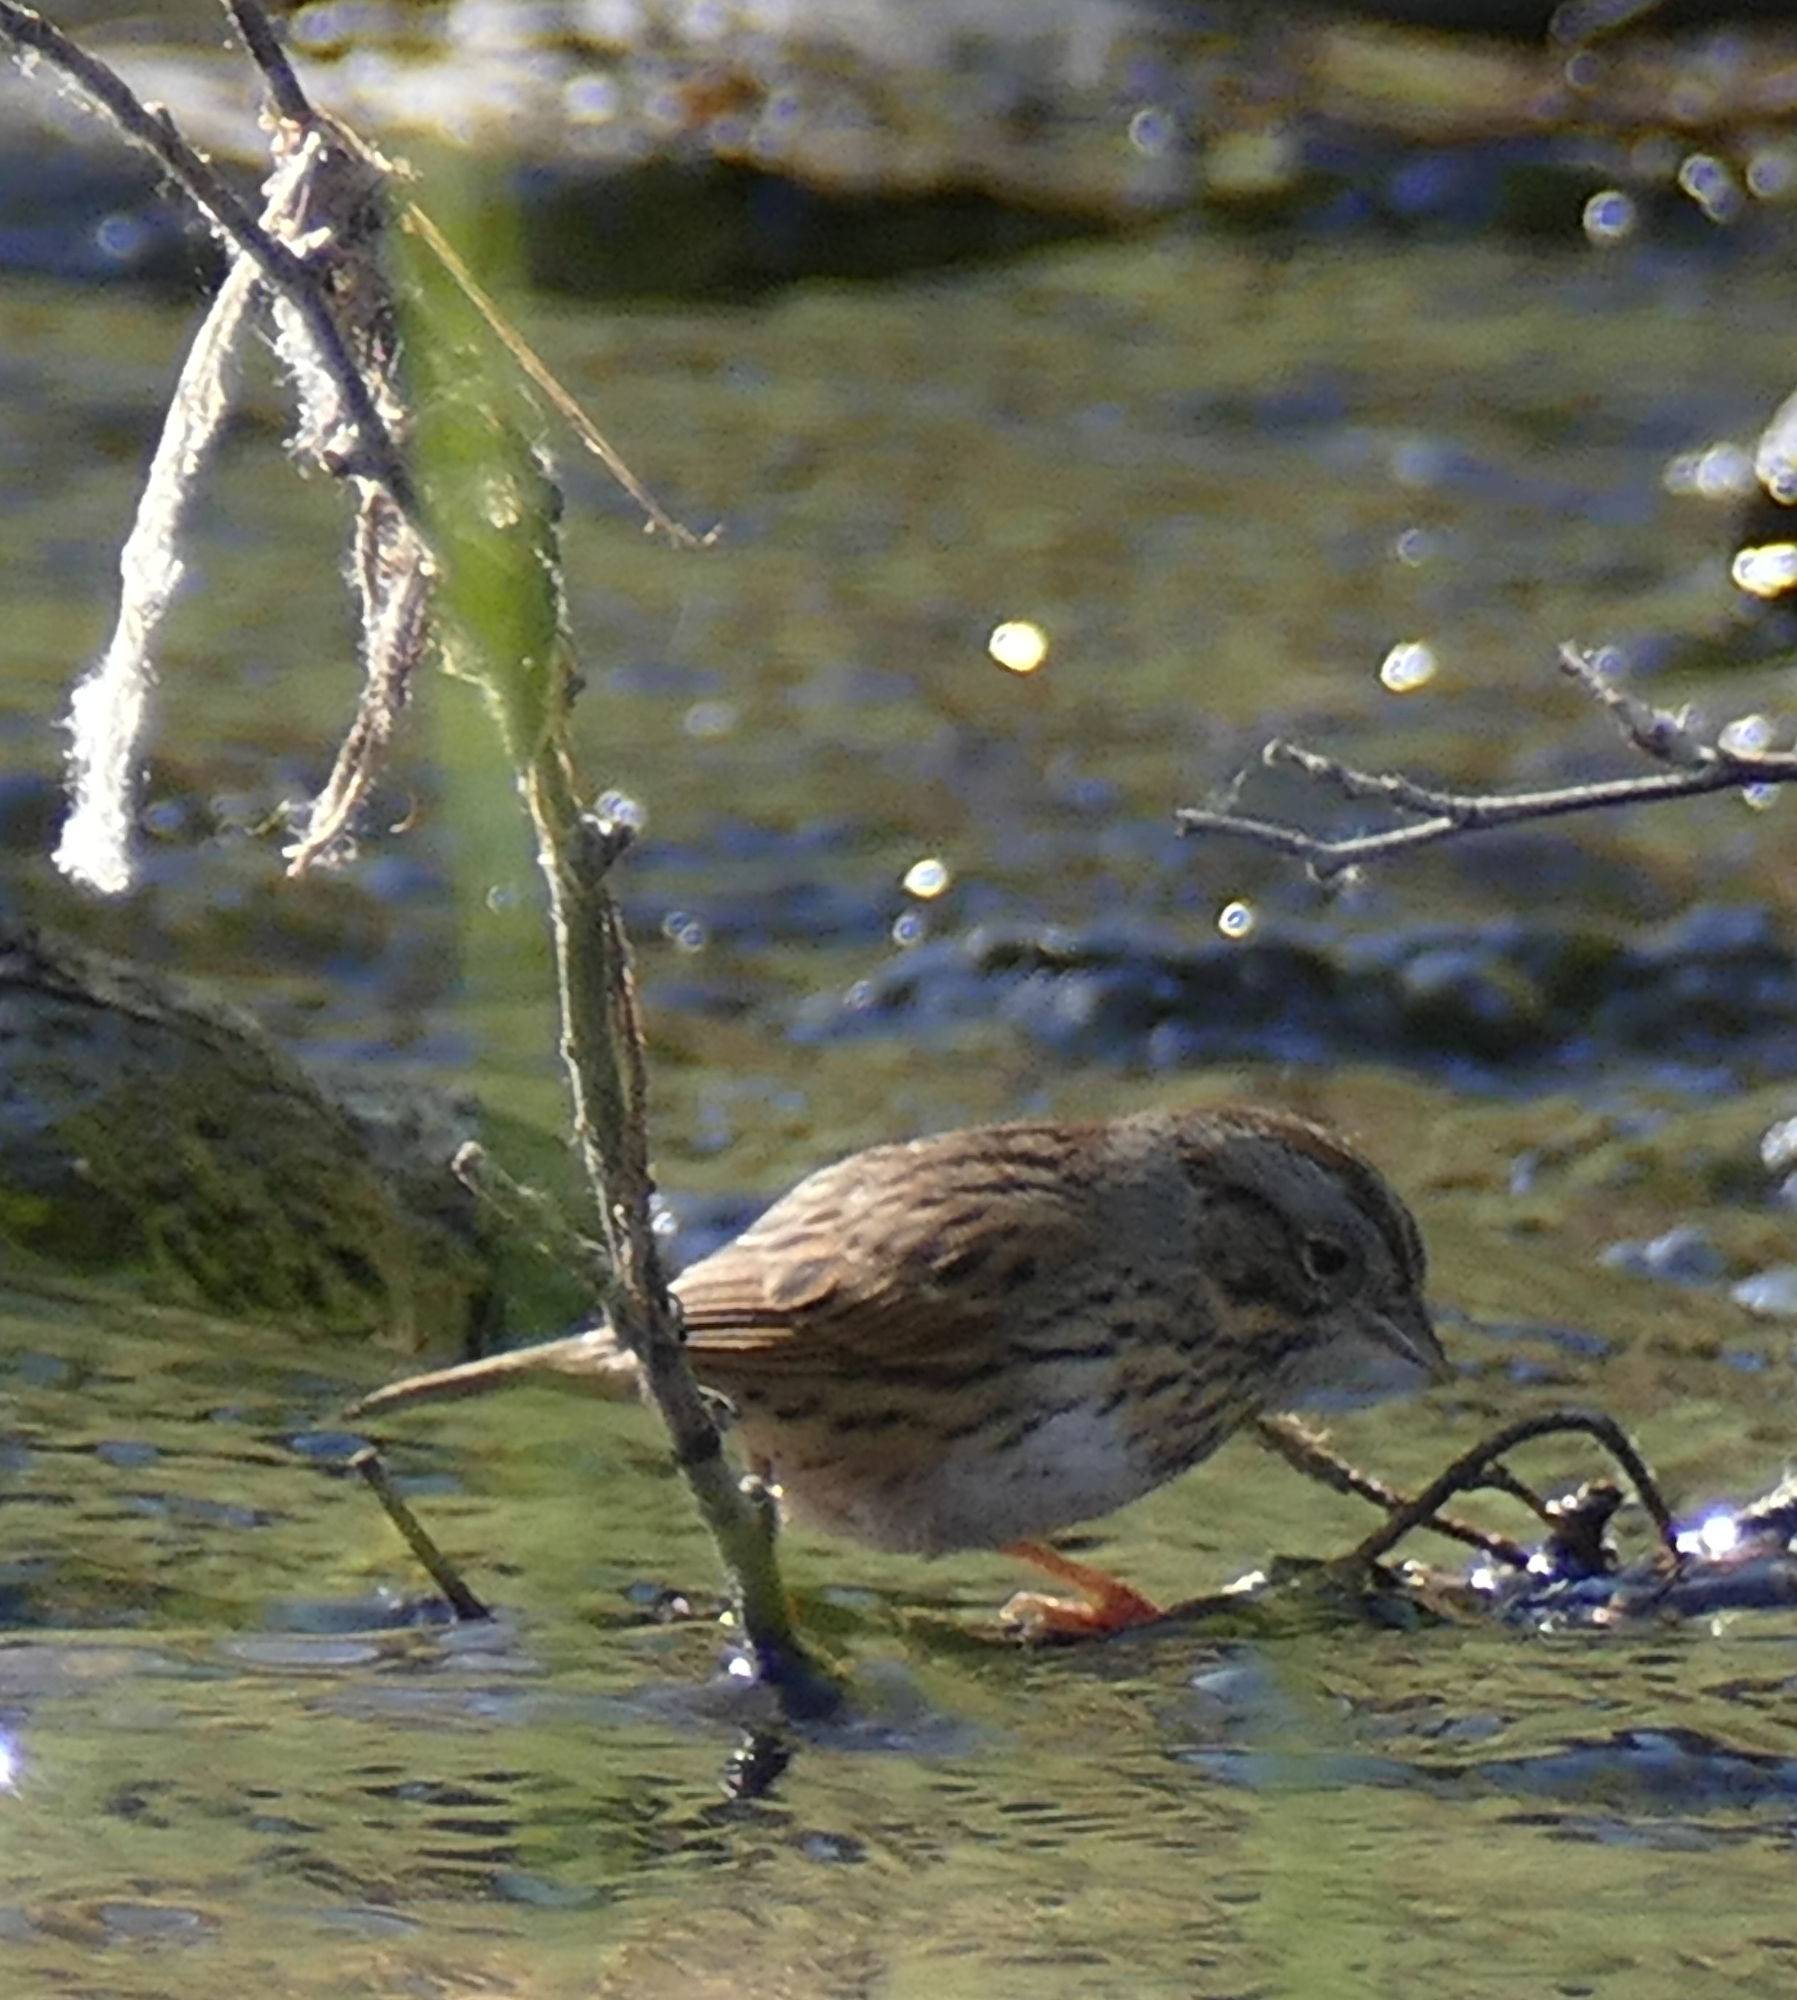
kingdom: Animalia
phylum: Chordata
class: Aves
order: Passeriformes
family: Passerellidae
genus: Melospiza
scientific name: Melospiza lincolnii
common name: Lincoln's sparrow
